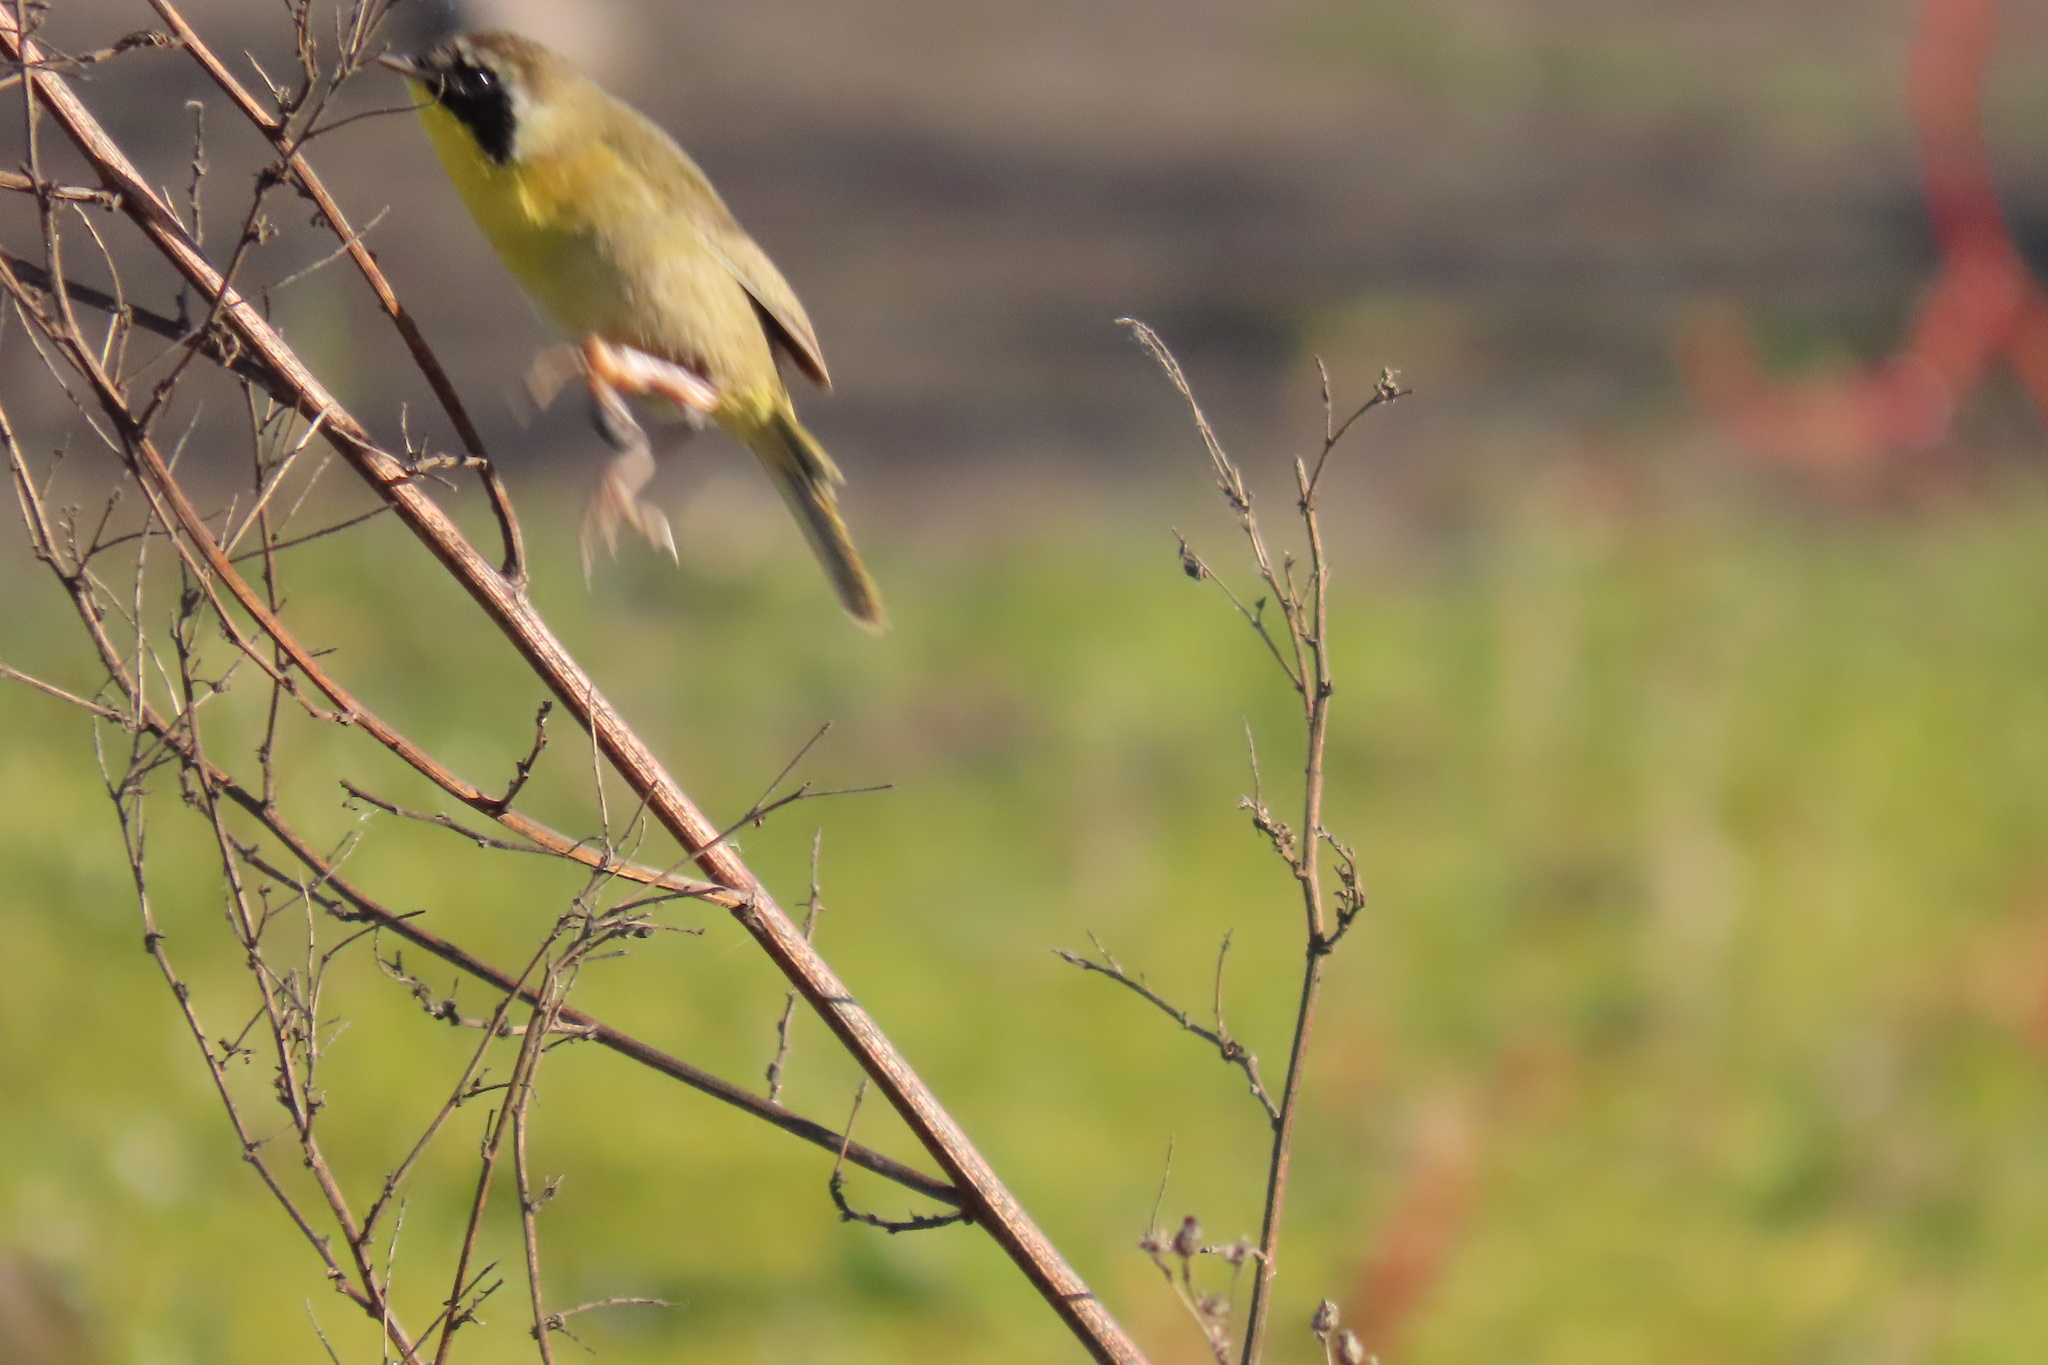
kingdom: Animalia
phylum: Chordata
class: Aves
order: Passeriformes
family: Parulidae
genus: Geothlypis
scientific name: Geothlypis trichas
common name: Common yellowthroat
